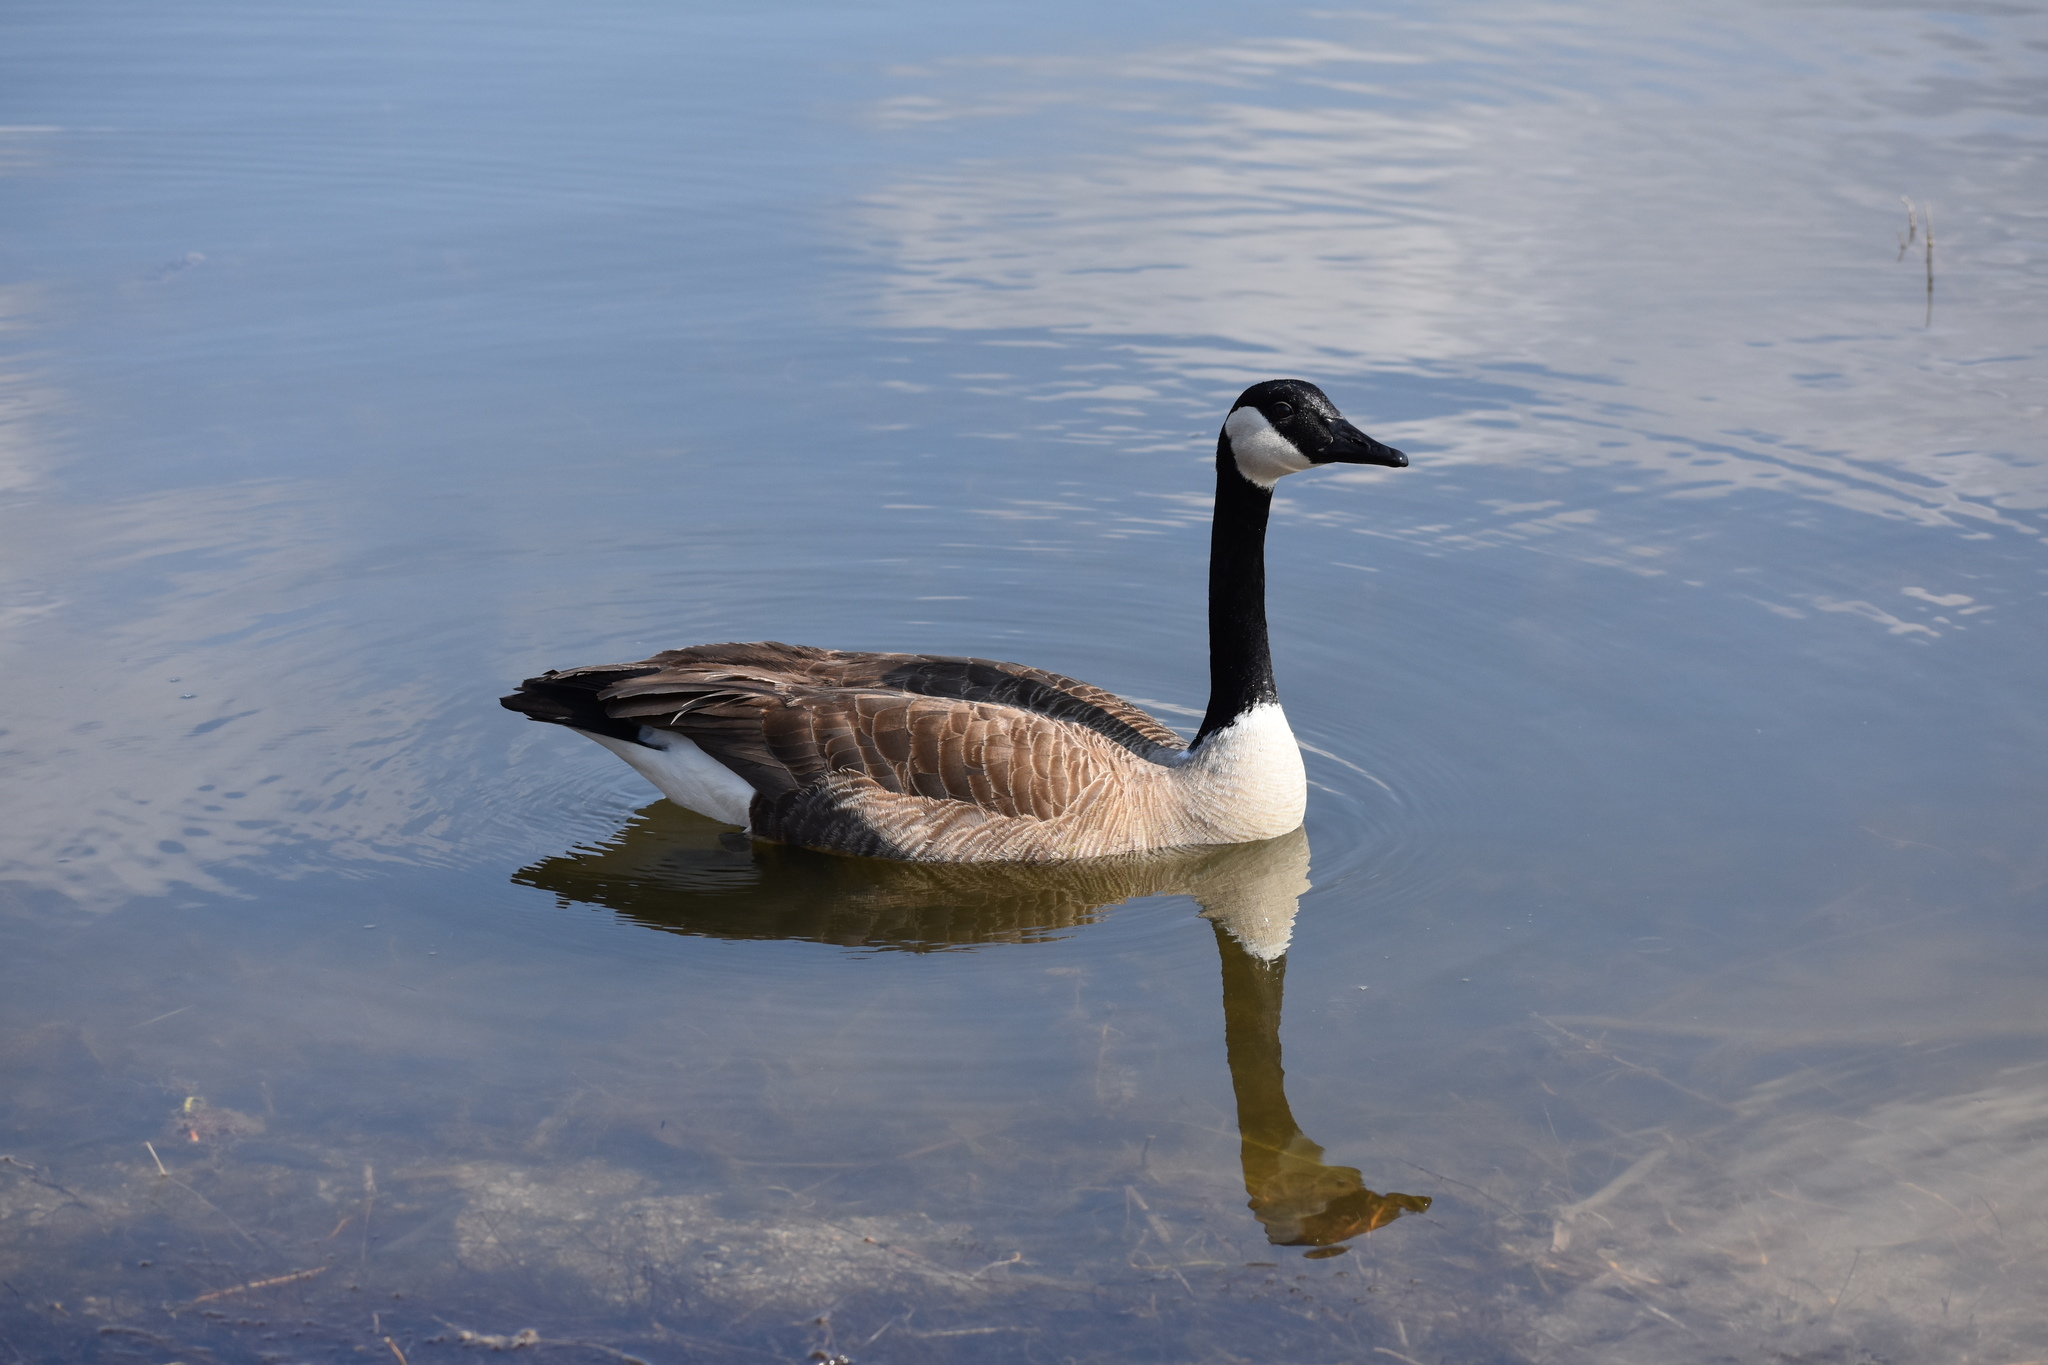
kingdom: Animalia
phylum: Chordata
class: Aves
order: Anseriformes
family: Anatidae
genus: Branta
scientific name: Branta canadensis
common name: Canada goose
